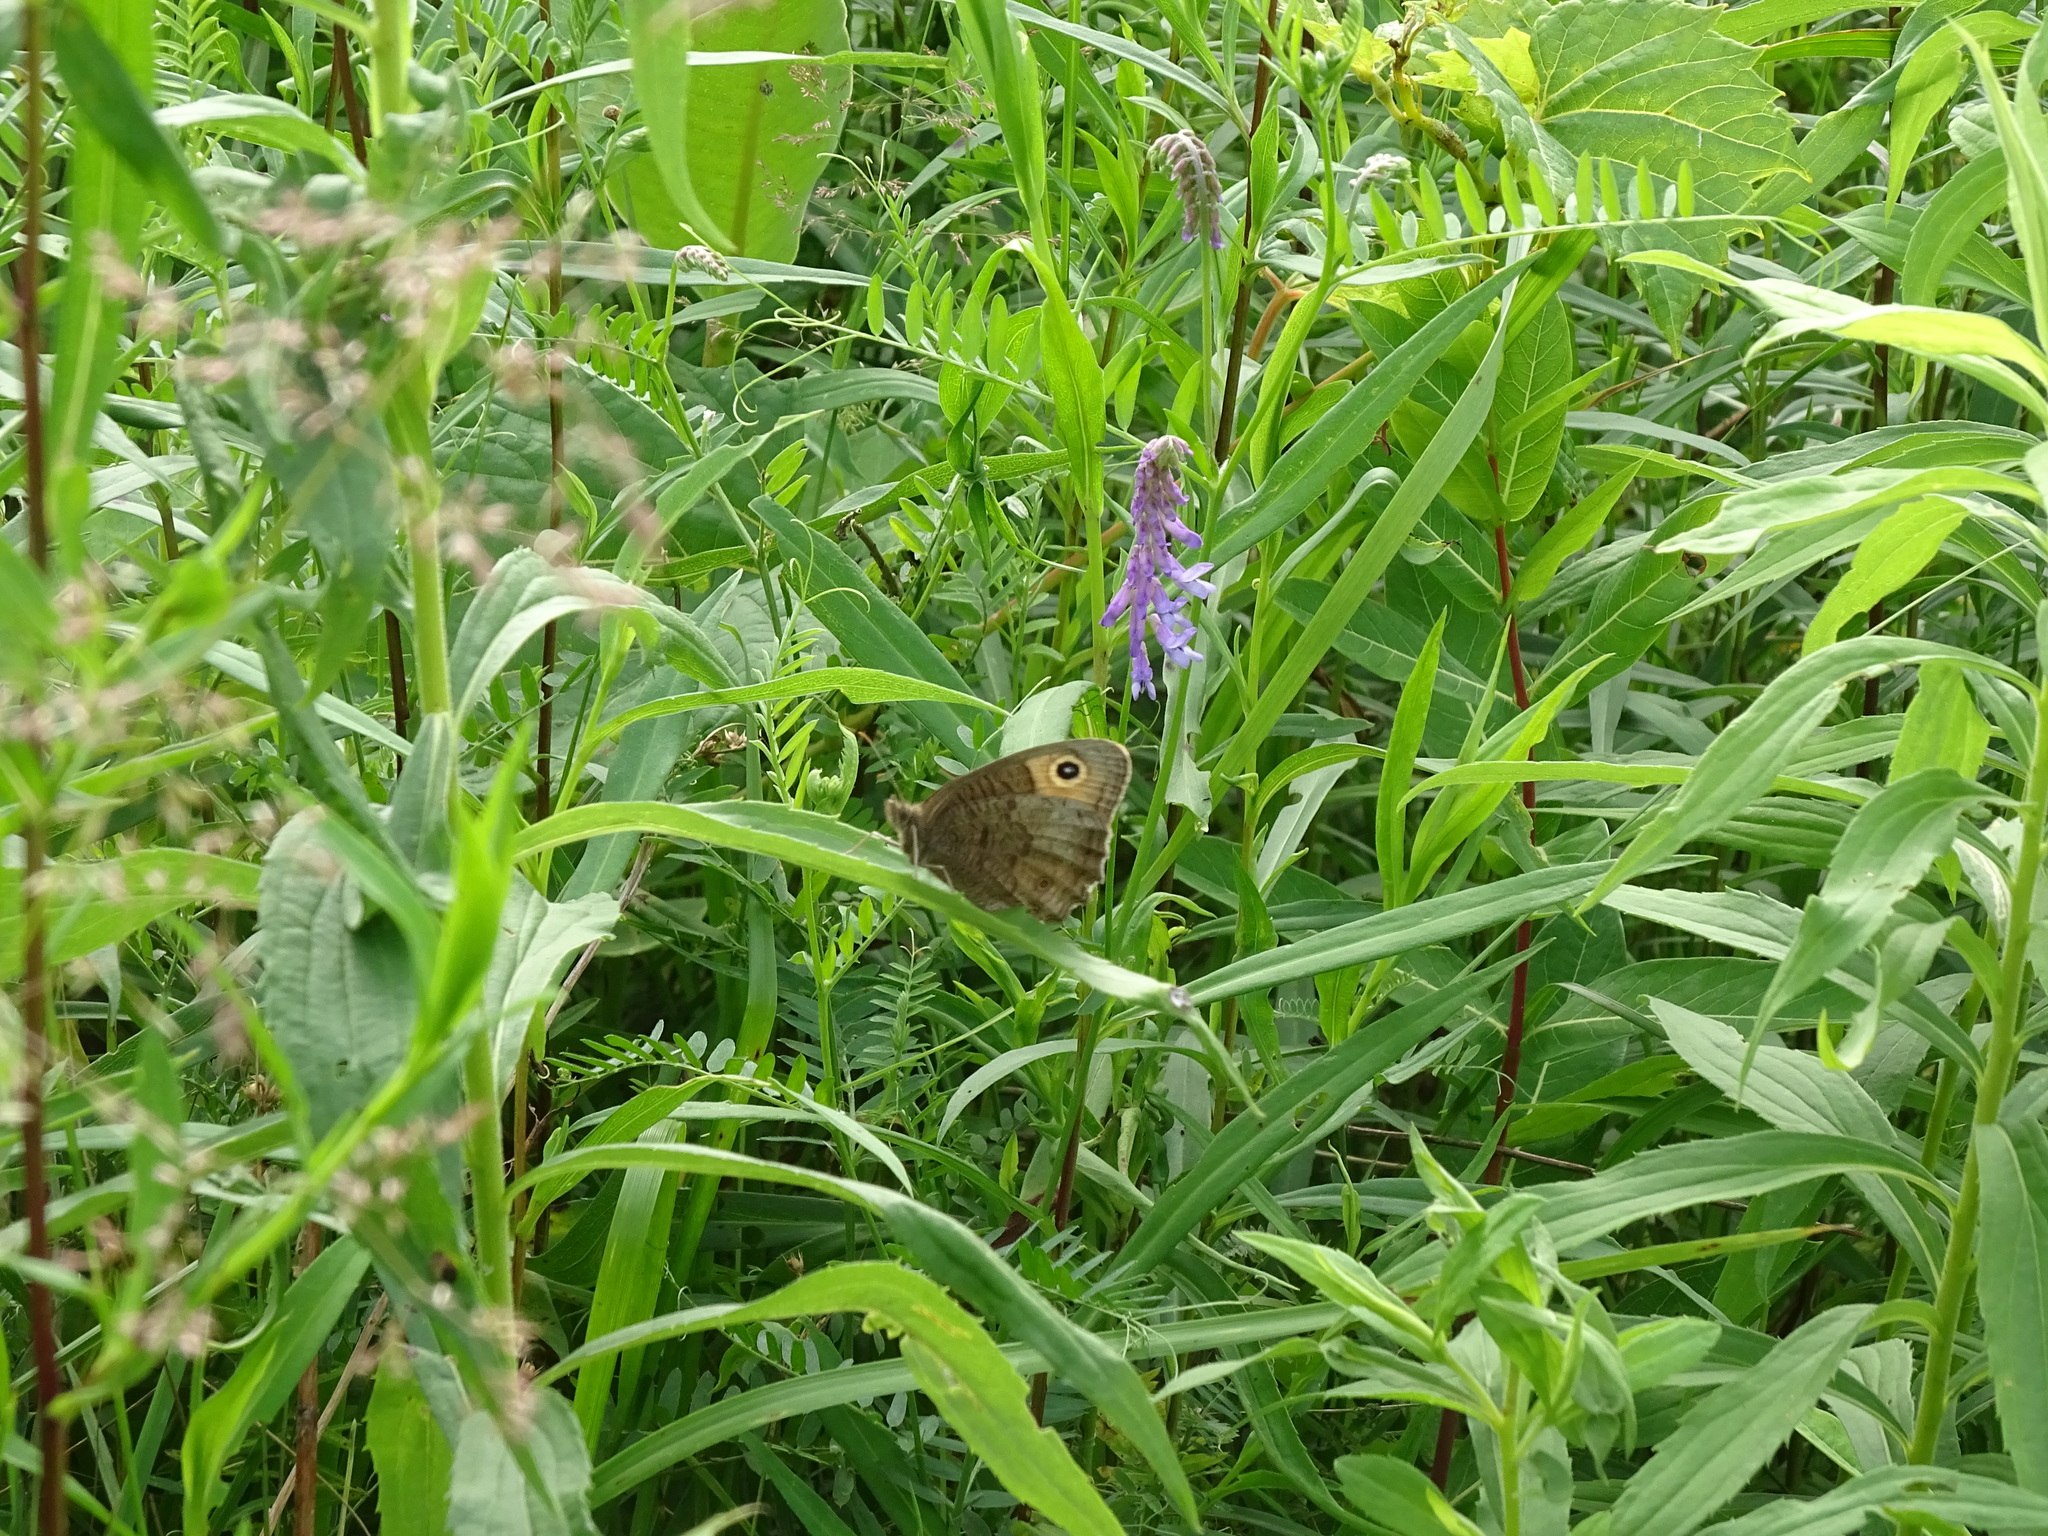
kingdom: Animalia
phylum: Arthropoda
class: Insecta
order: Lepidoptera
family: Nymphalidae
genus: Cercyonis
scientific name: Cercyonis pegala
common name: Common wood-nymph
